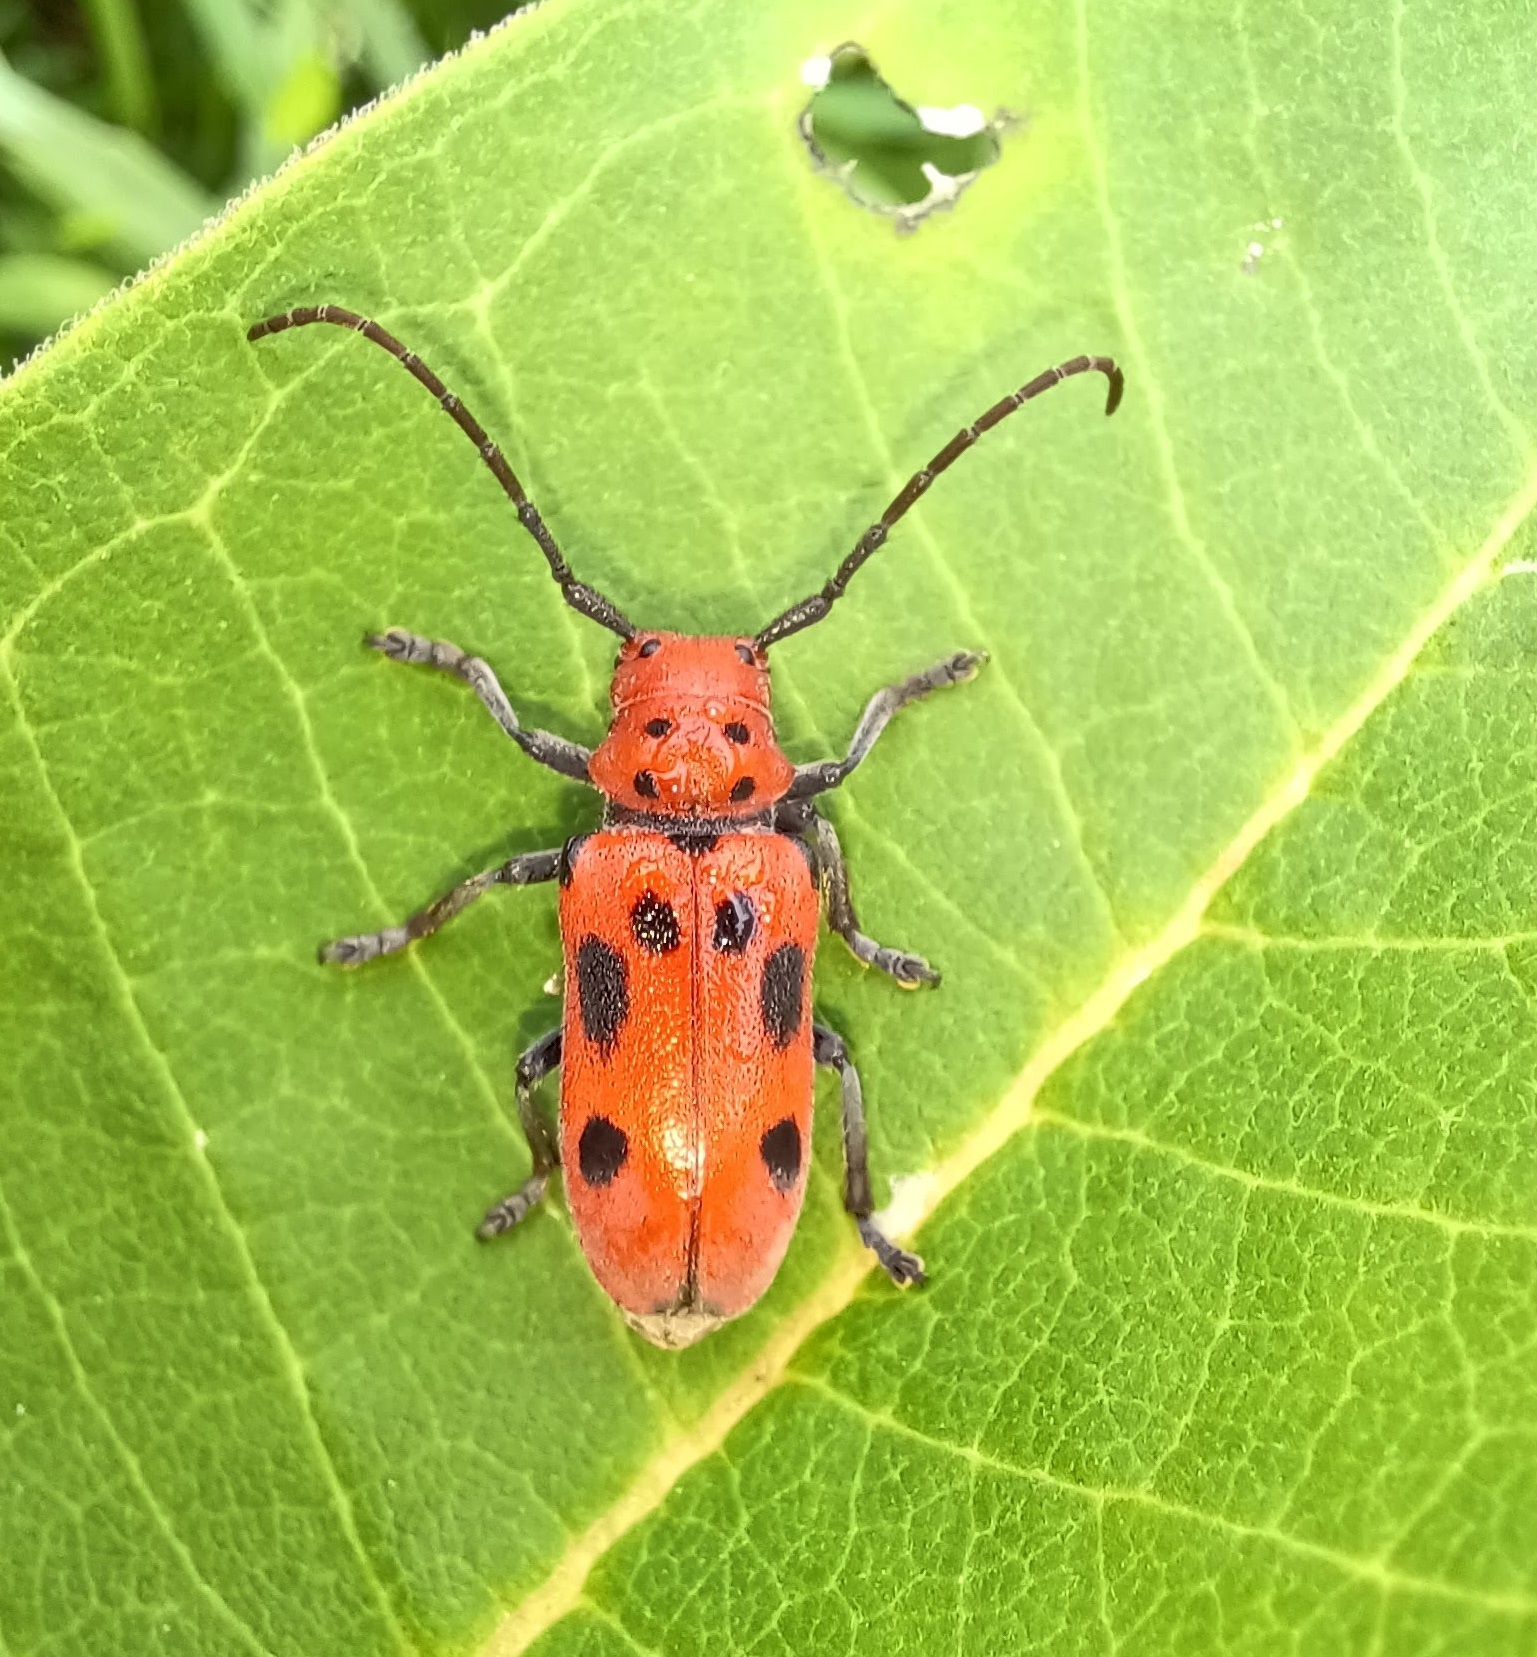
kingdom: Animalia
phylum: Arthropoda
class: Insecta
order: Coleoptera
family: Cerambycidae
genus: Tetraopes
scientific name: Tetraopes tetrophthalmus
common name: Red milkweed beetle
